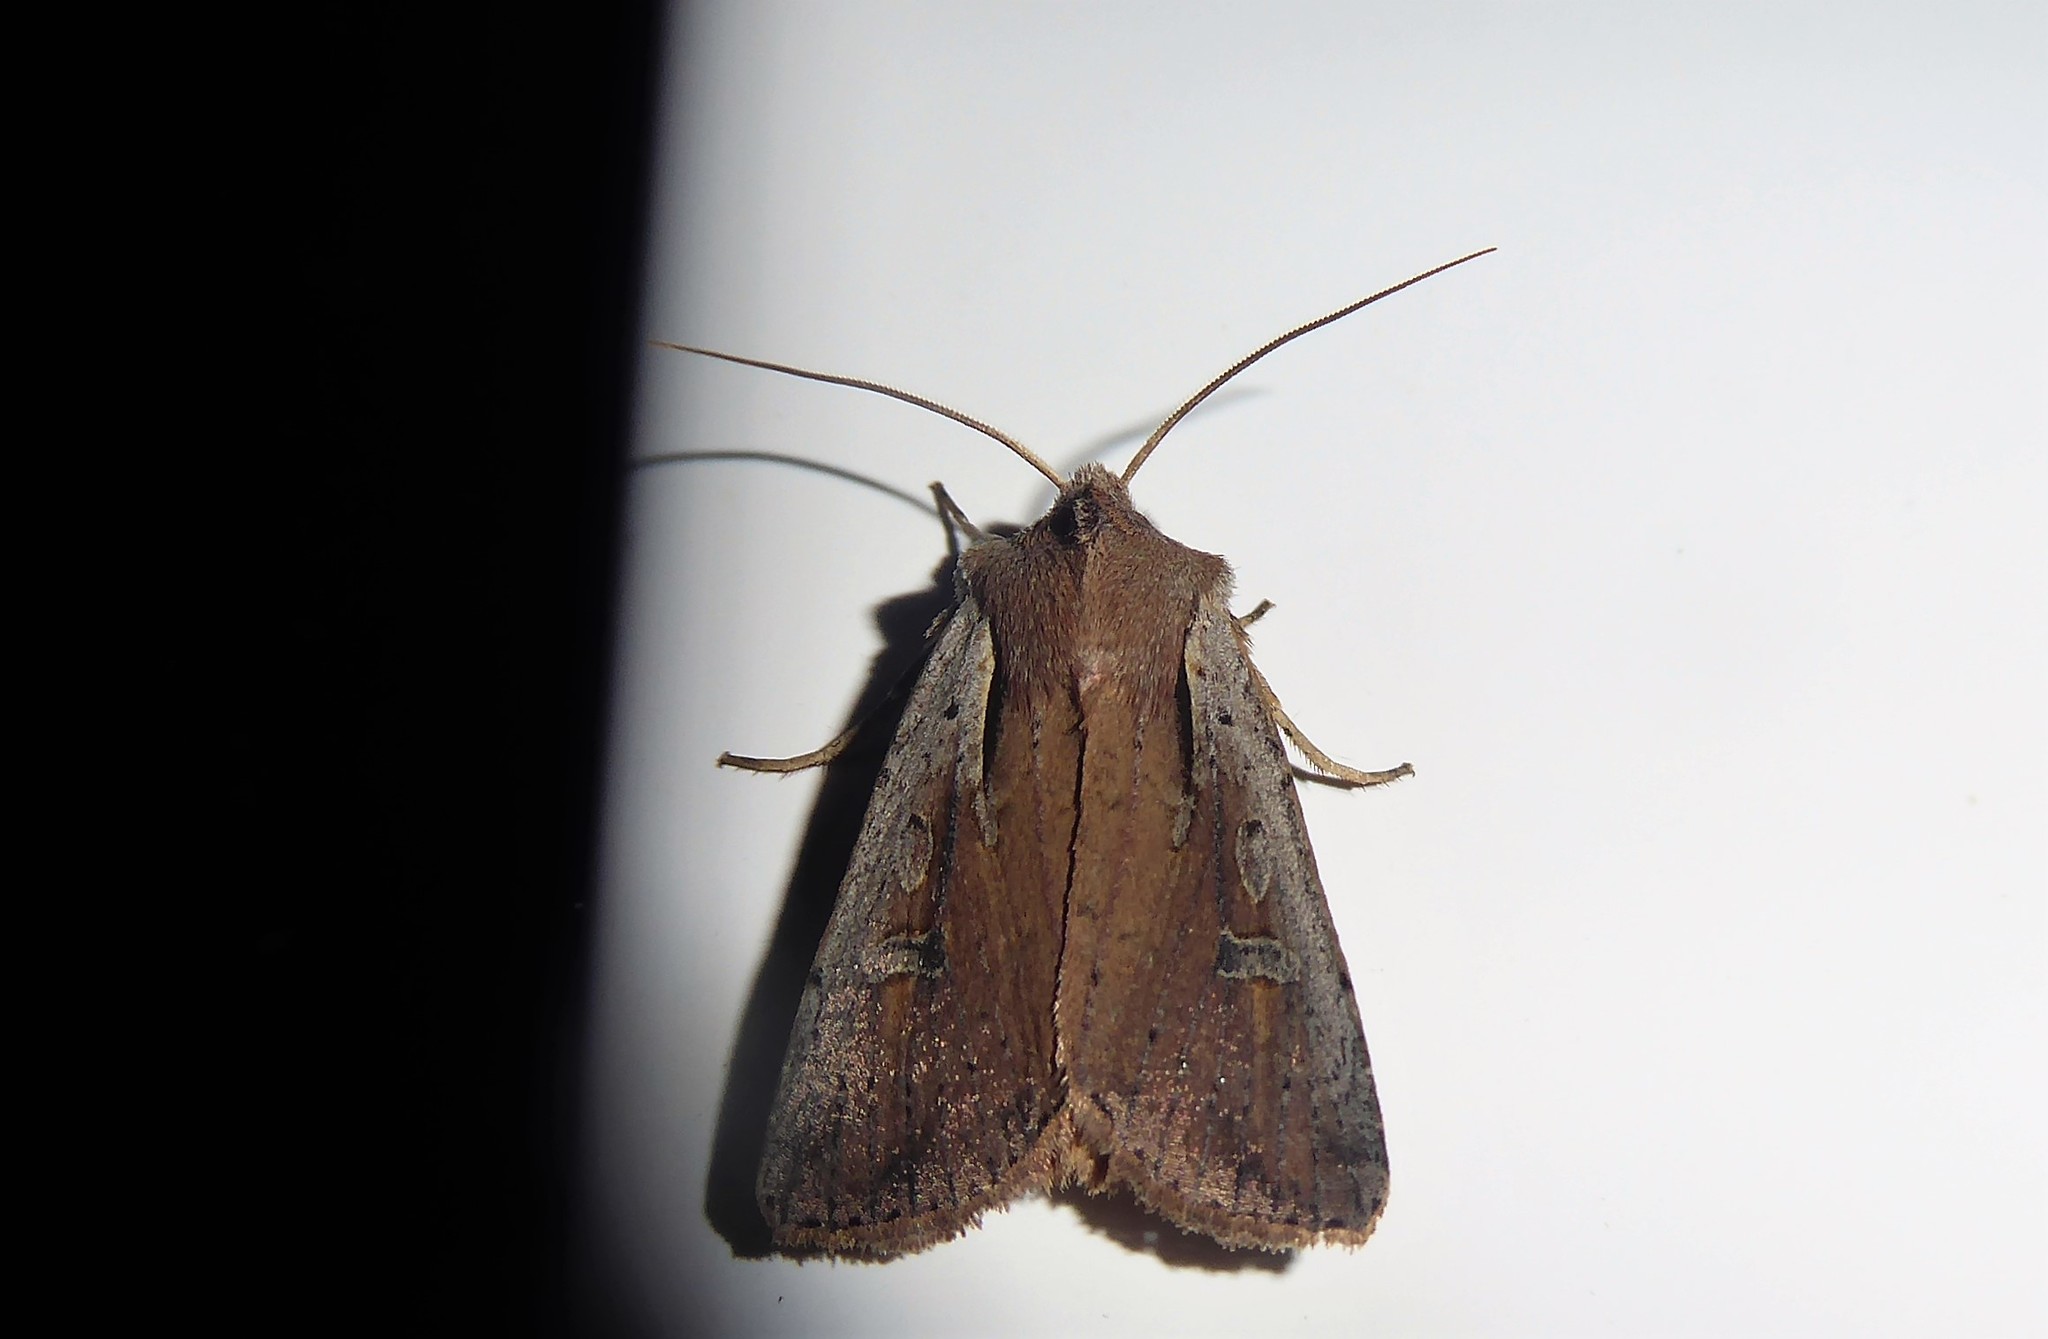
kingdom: Animalia
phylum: Arthropoda
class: Insecta
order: Lepidoptera
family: Noctuidae
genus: Ichneutica
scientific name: Ichneutica atristriga
